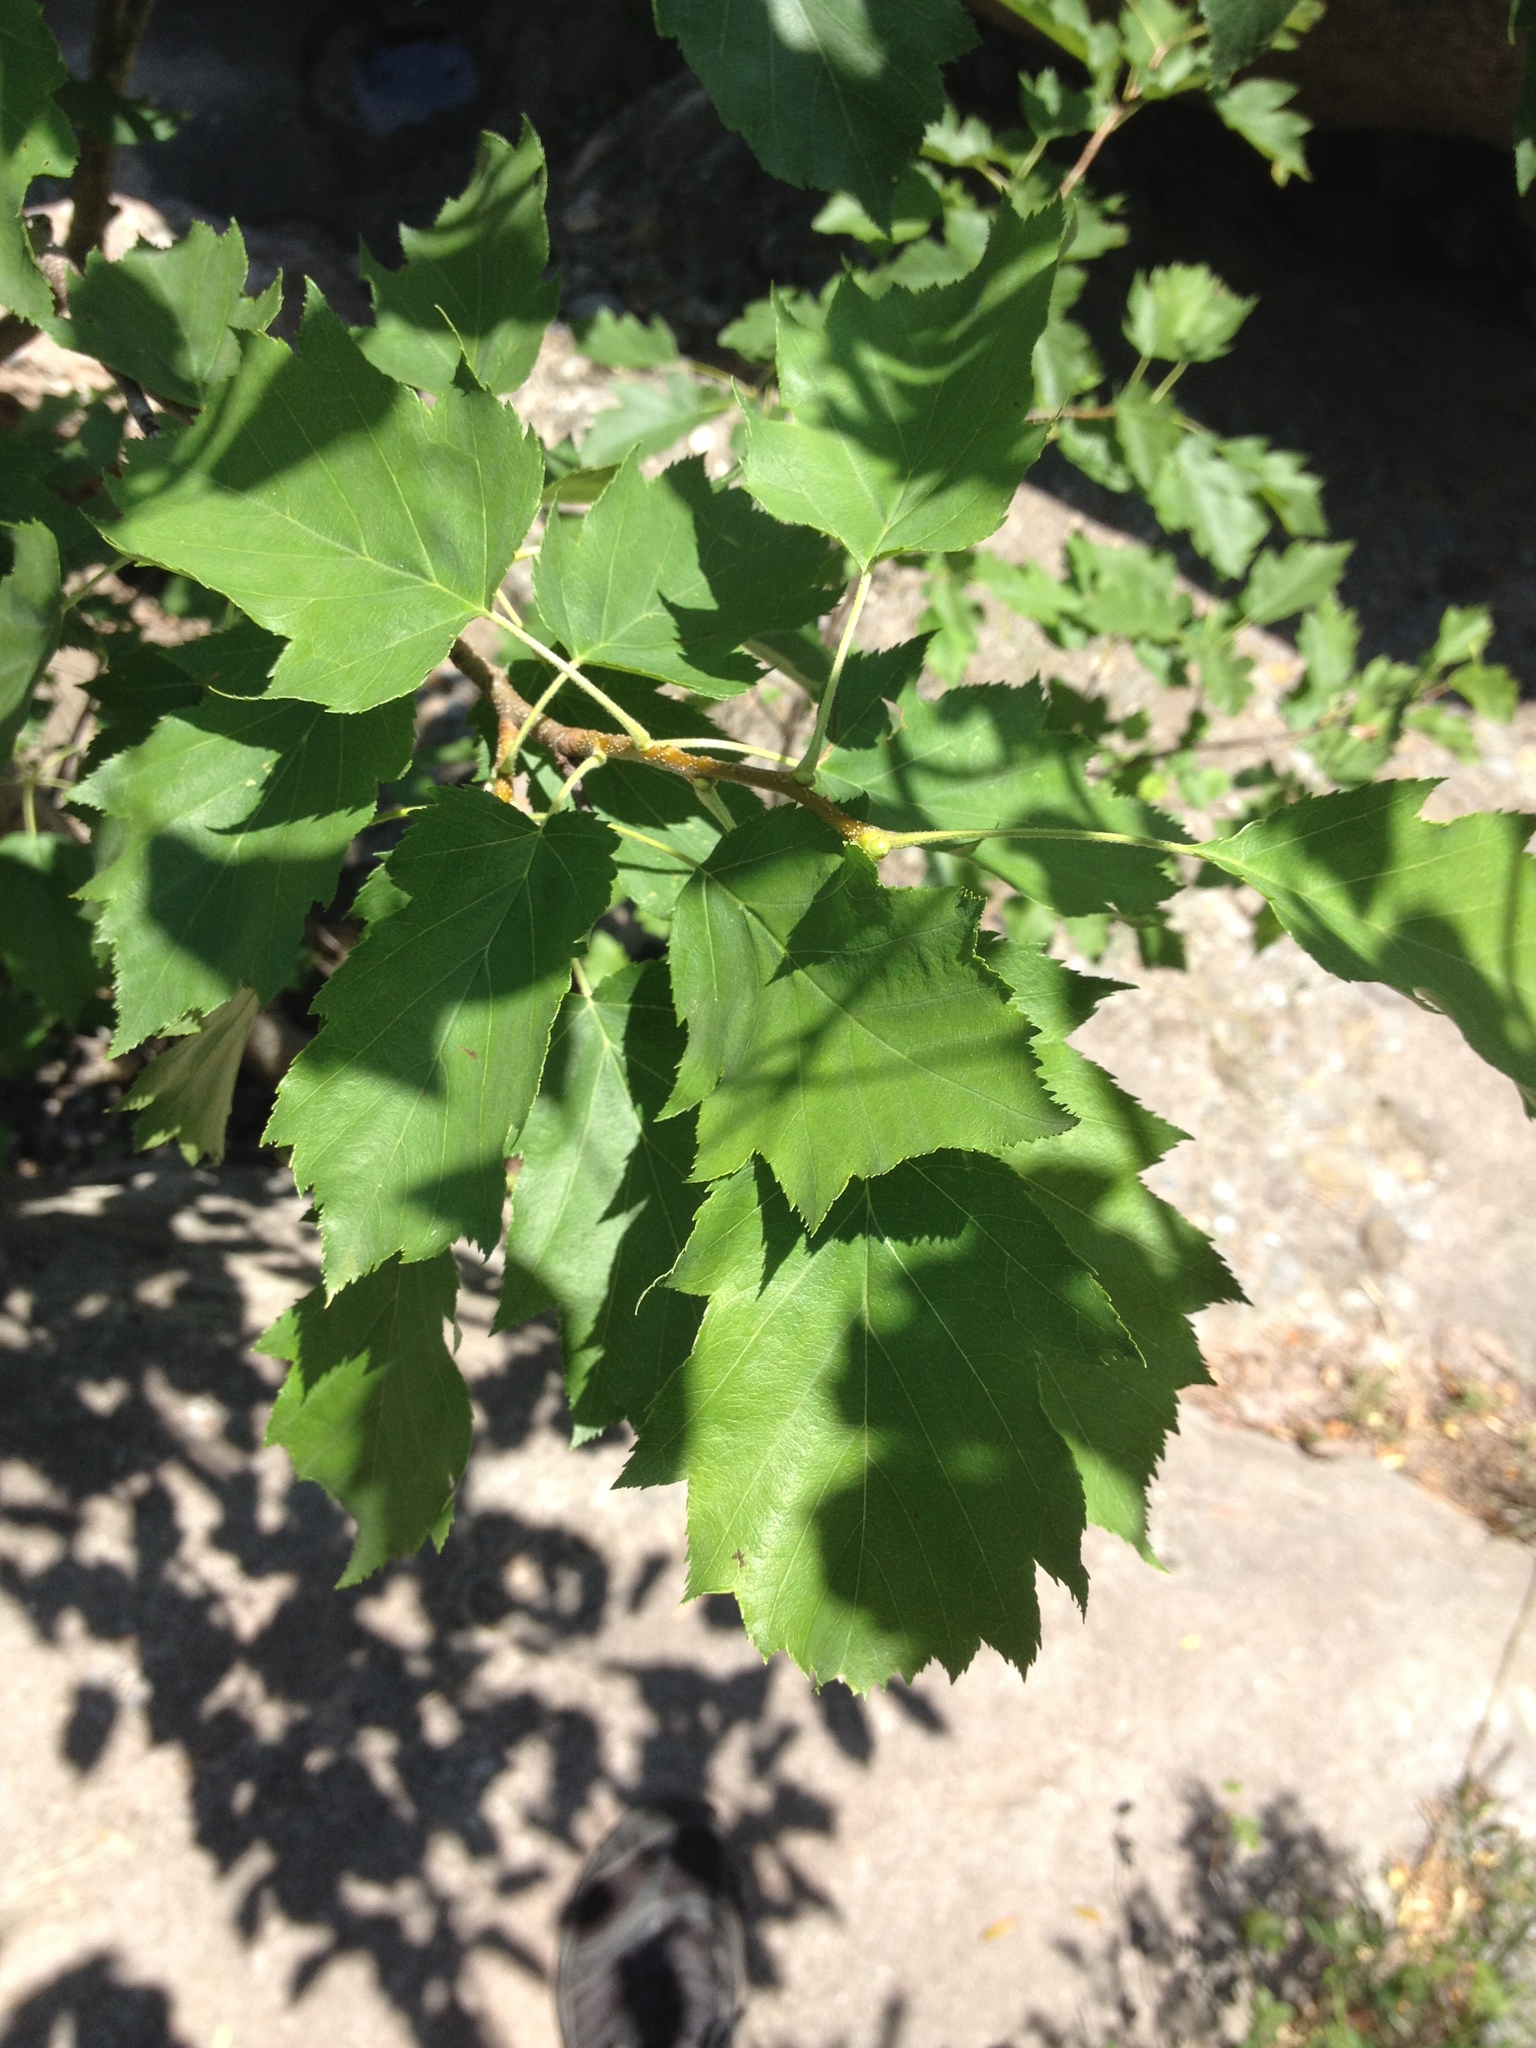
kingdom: Plantae
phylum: Tracheophyta
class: Magnoliopsida
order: Rosales
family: Rosaceae
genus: Torminalis
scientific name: Torminalis glaberrima
